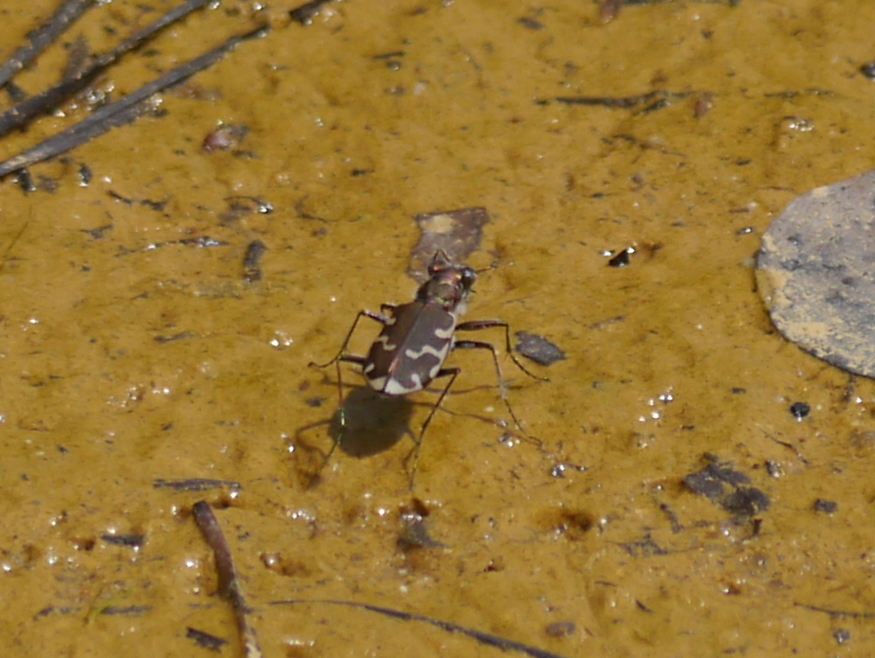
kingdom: Animalia
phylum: Arthropoda
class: Insecta
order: Coleoptera
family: Carabidae
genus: Cicindela
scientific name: Cicindela repanda
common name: Bronzed tiger beetle
